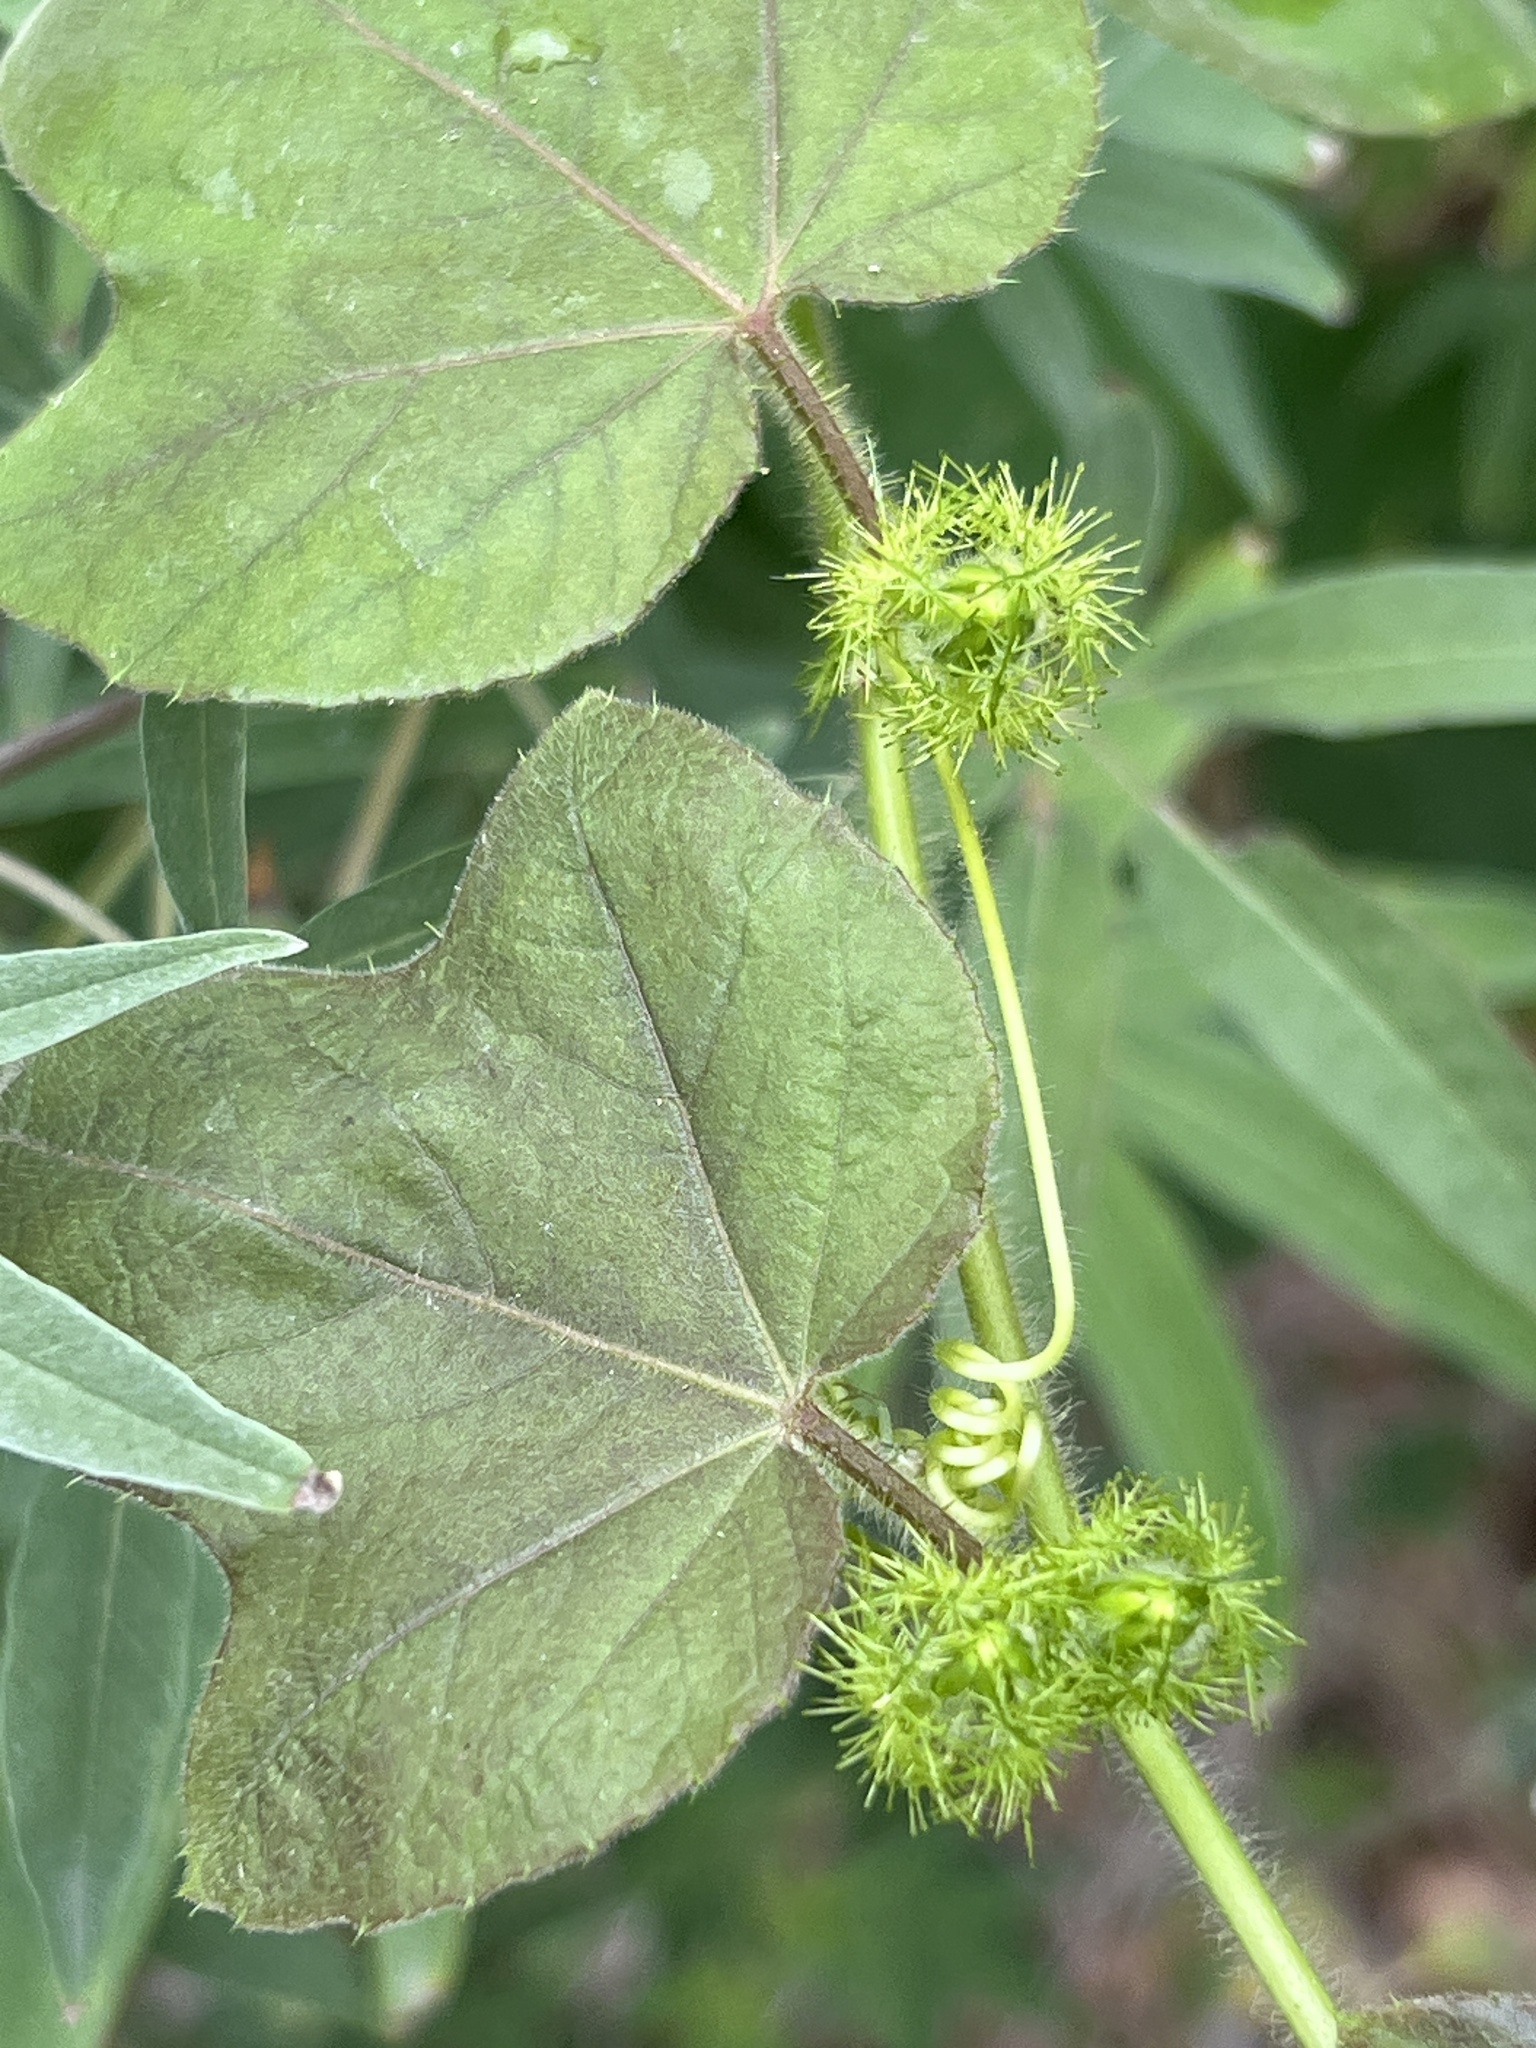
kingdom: Plantae
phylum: Tracheophyta
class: Magnoliopsida
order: Malpighiales
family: Passifloraceae
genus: Passiflora
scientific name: Passiflora
